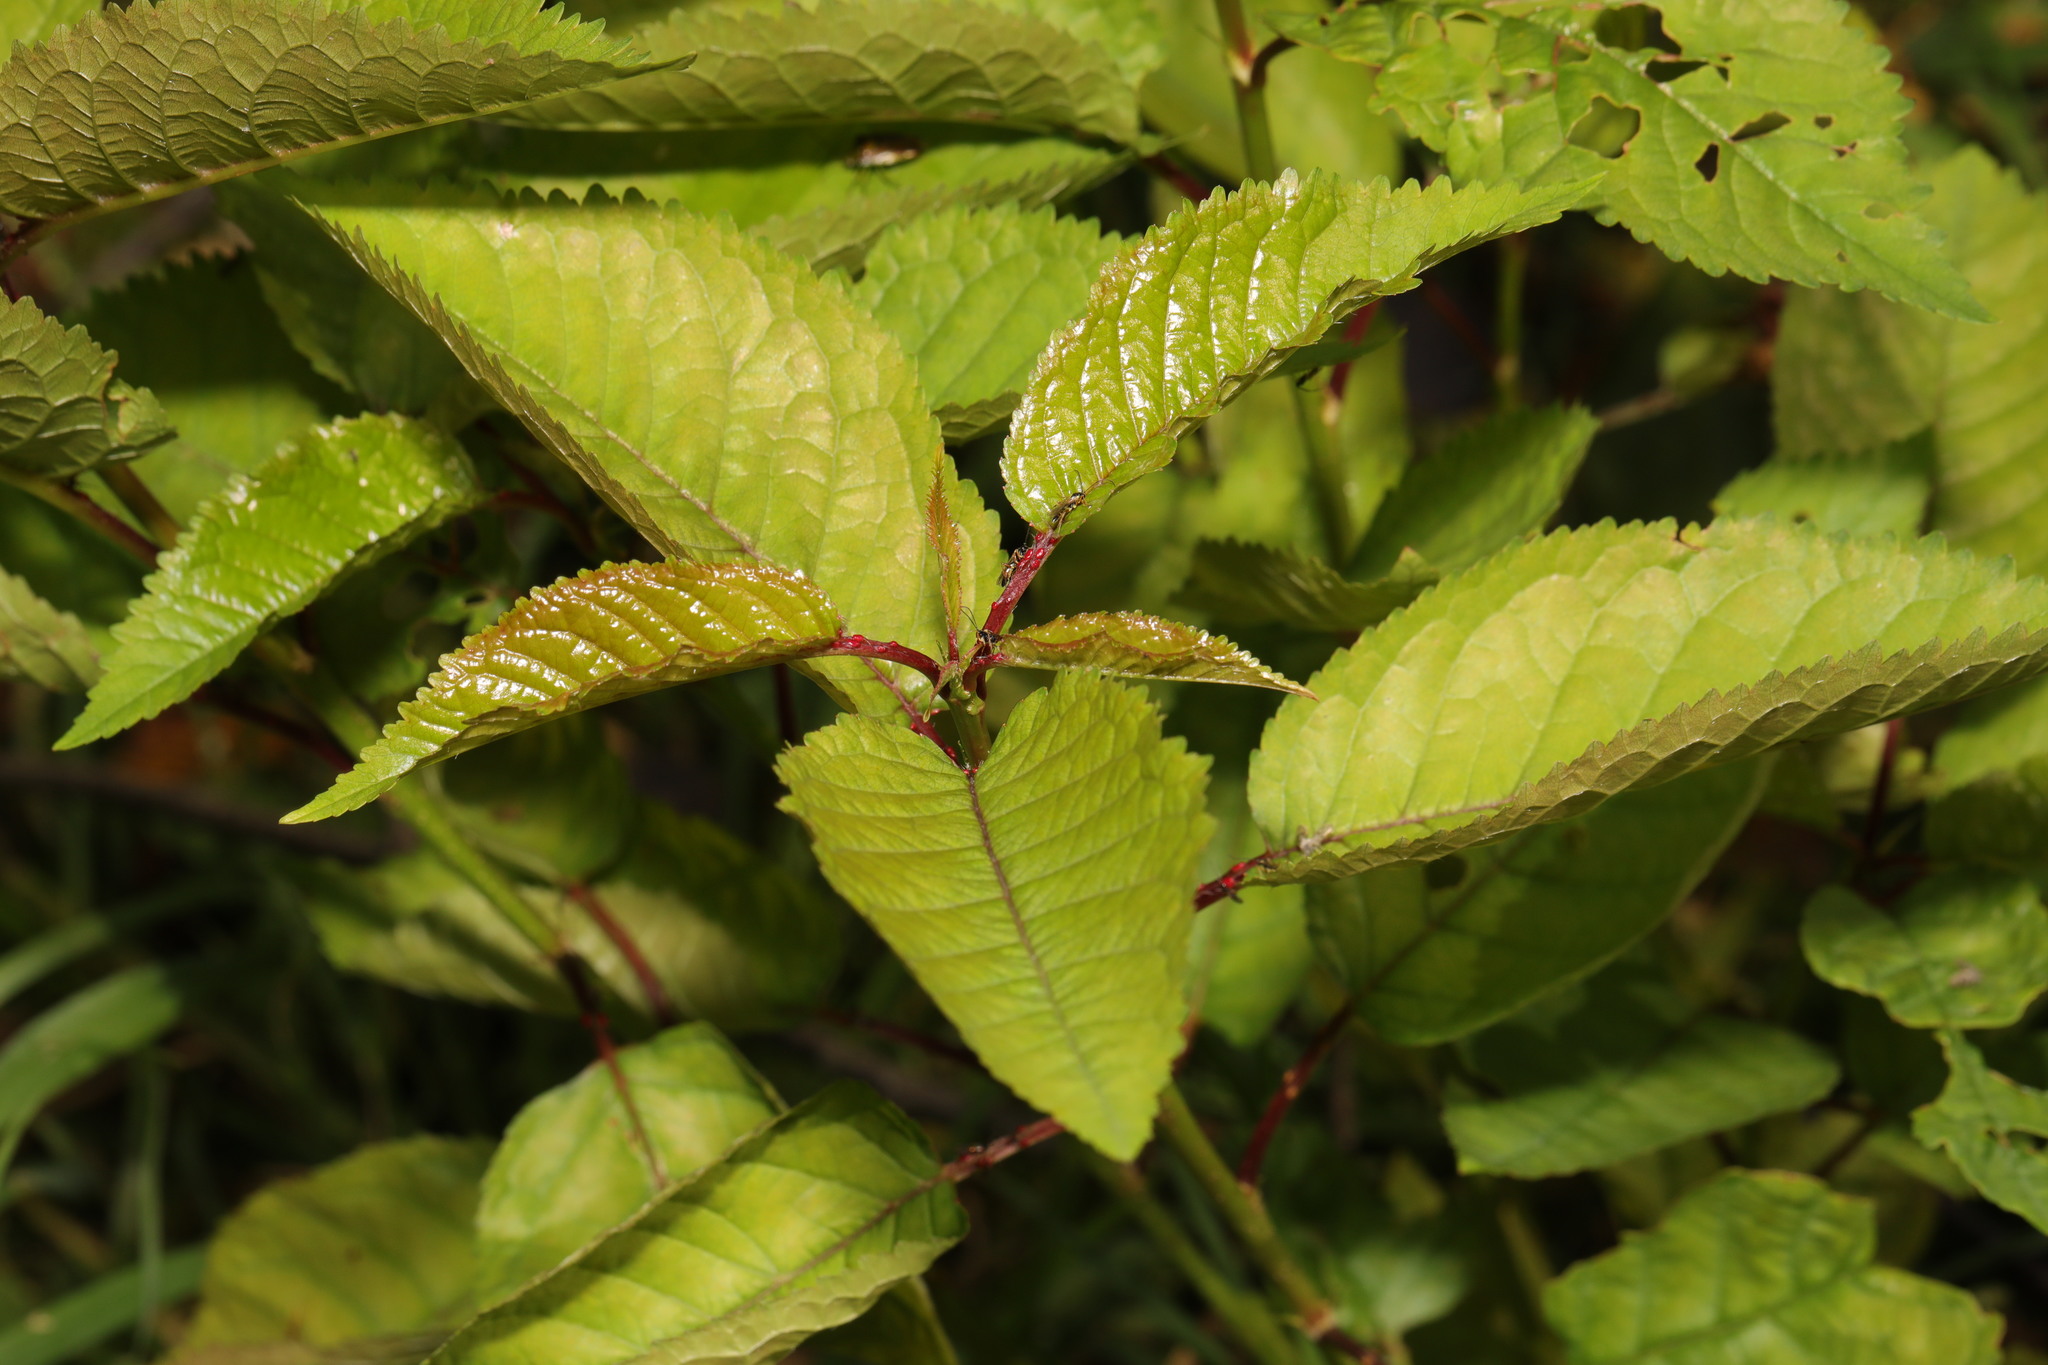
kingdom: Plantae
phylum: Tracheophyta
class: Magnoliopsida
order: Rosales
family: Rosaceae
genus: Prunus
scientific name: Prunus avium
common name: Sweet cherry
